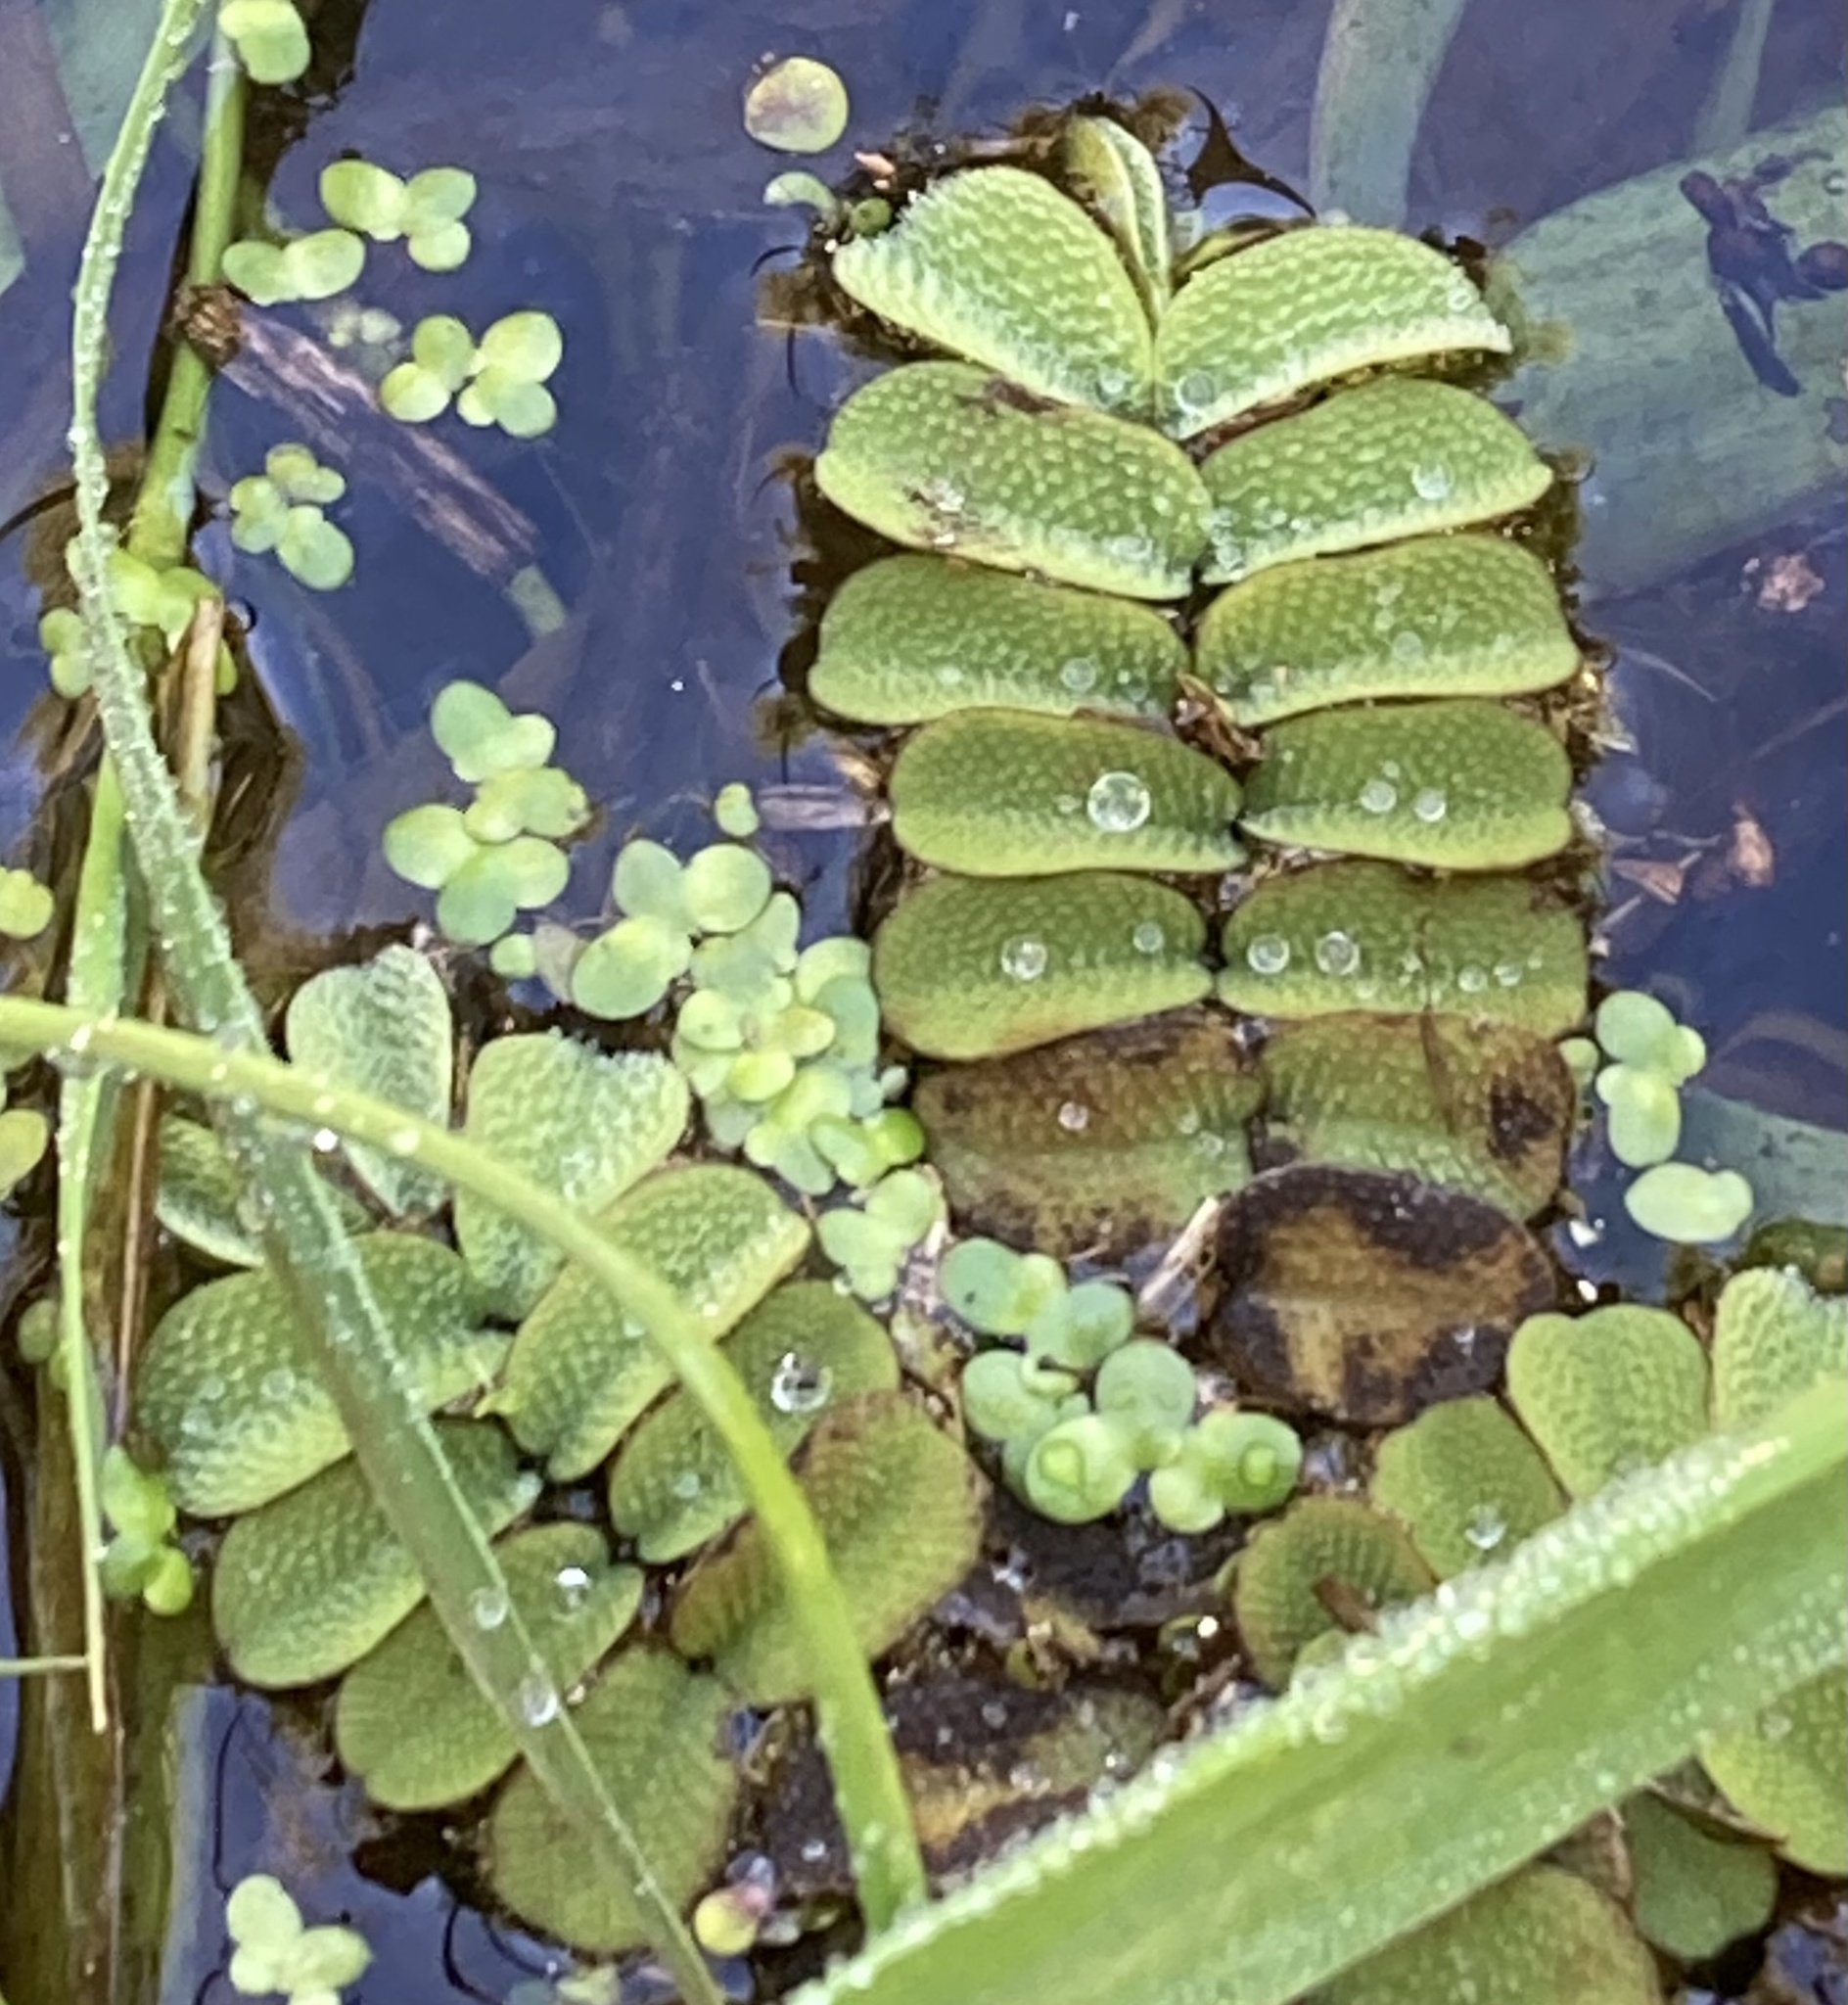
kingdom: Plantae
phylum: Tracheophyta
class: Polypodiopsida
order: Salviniales
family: Salviniaceae
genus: Salvinia
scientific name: Salvinia natans
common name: Floating fern
